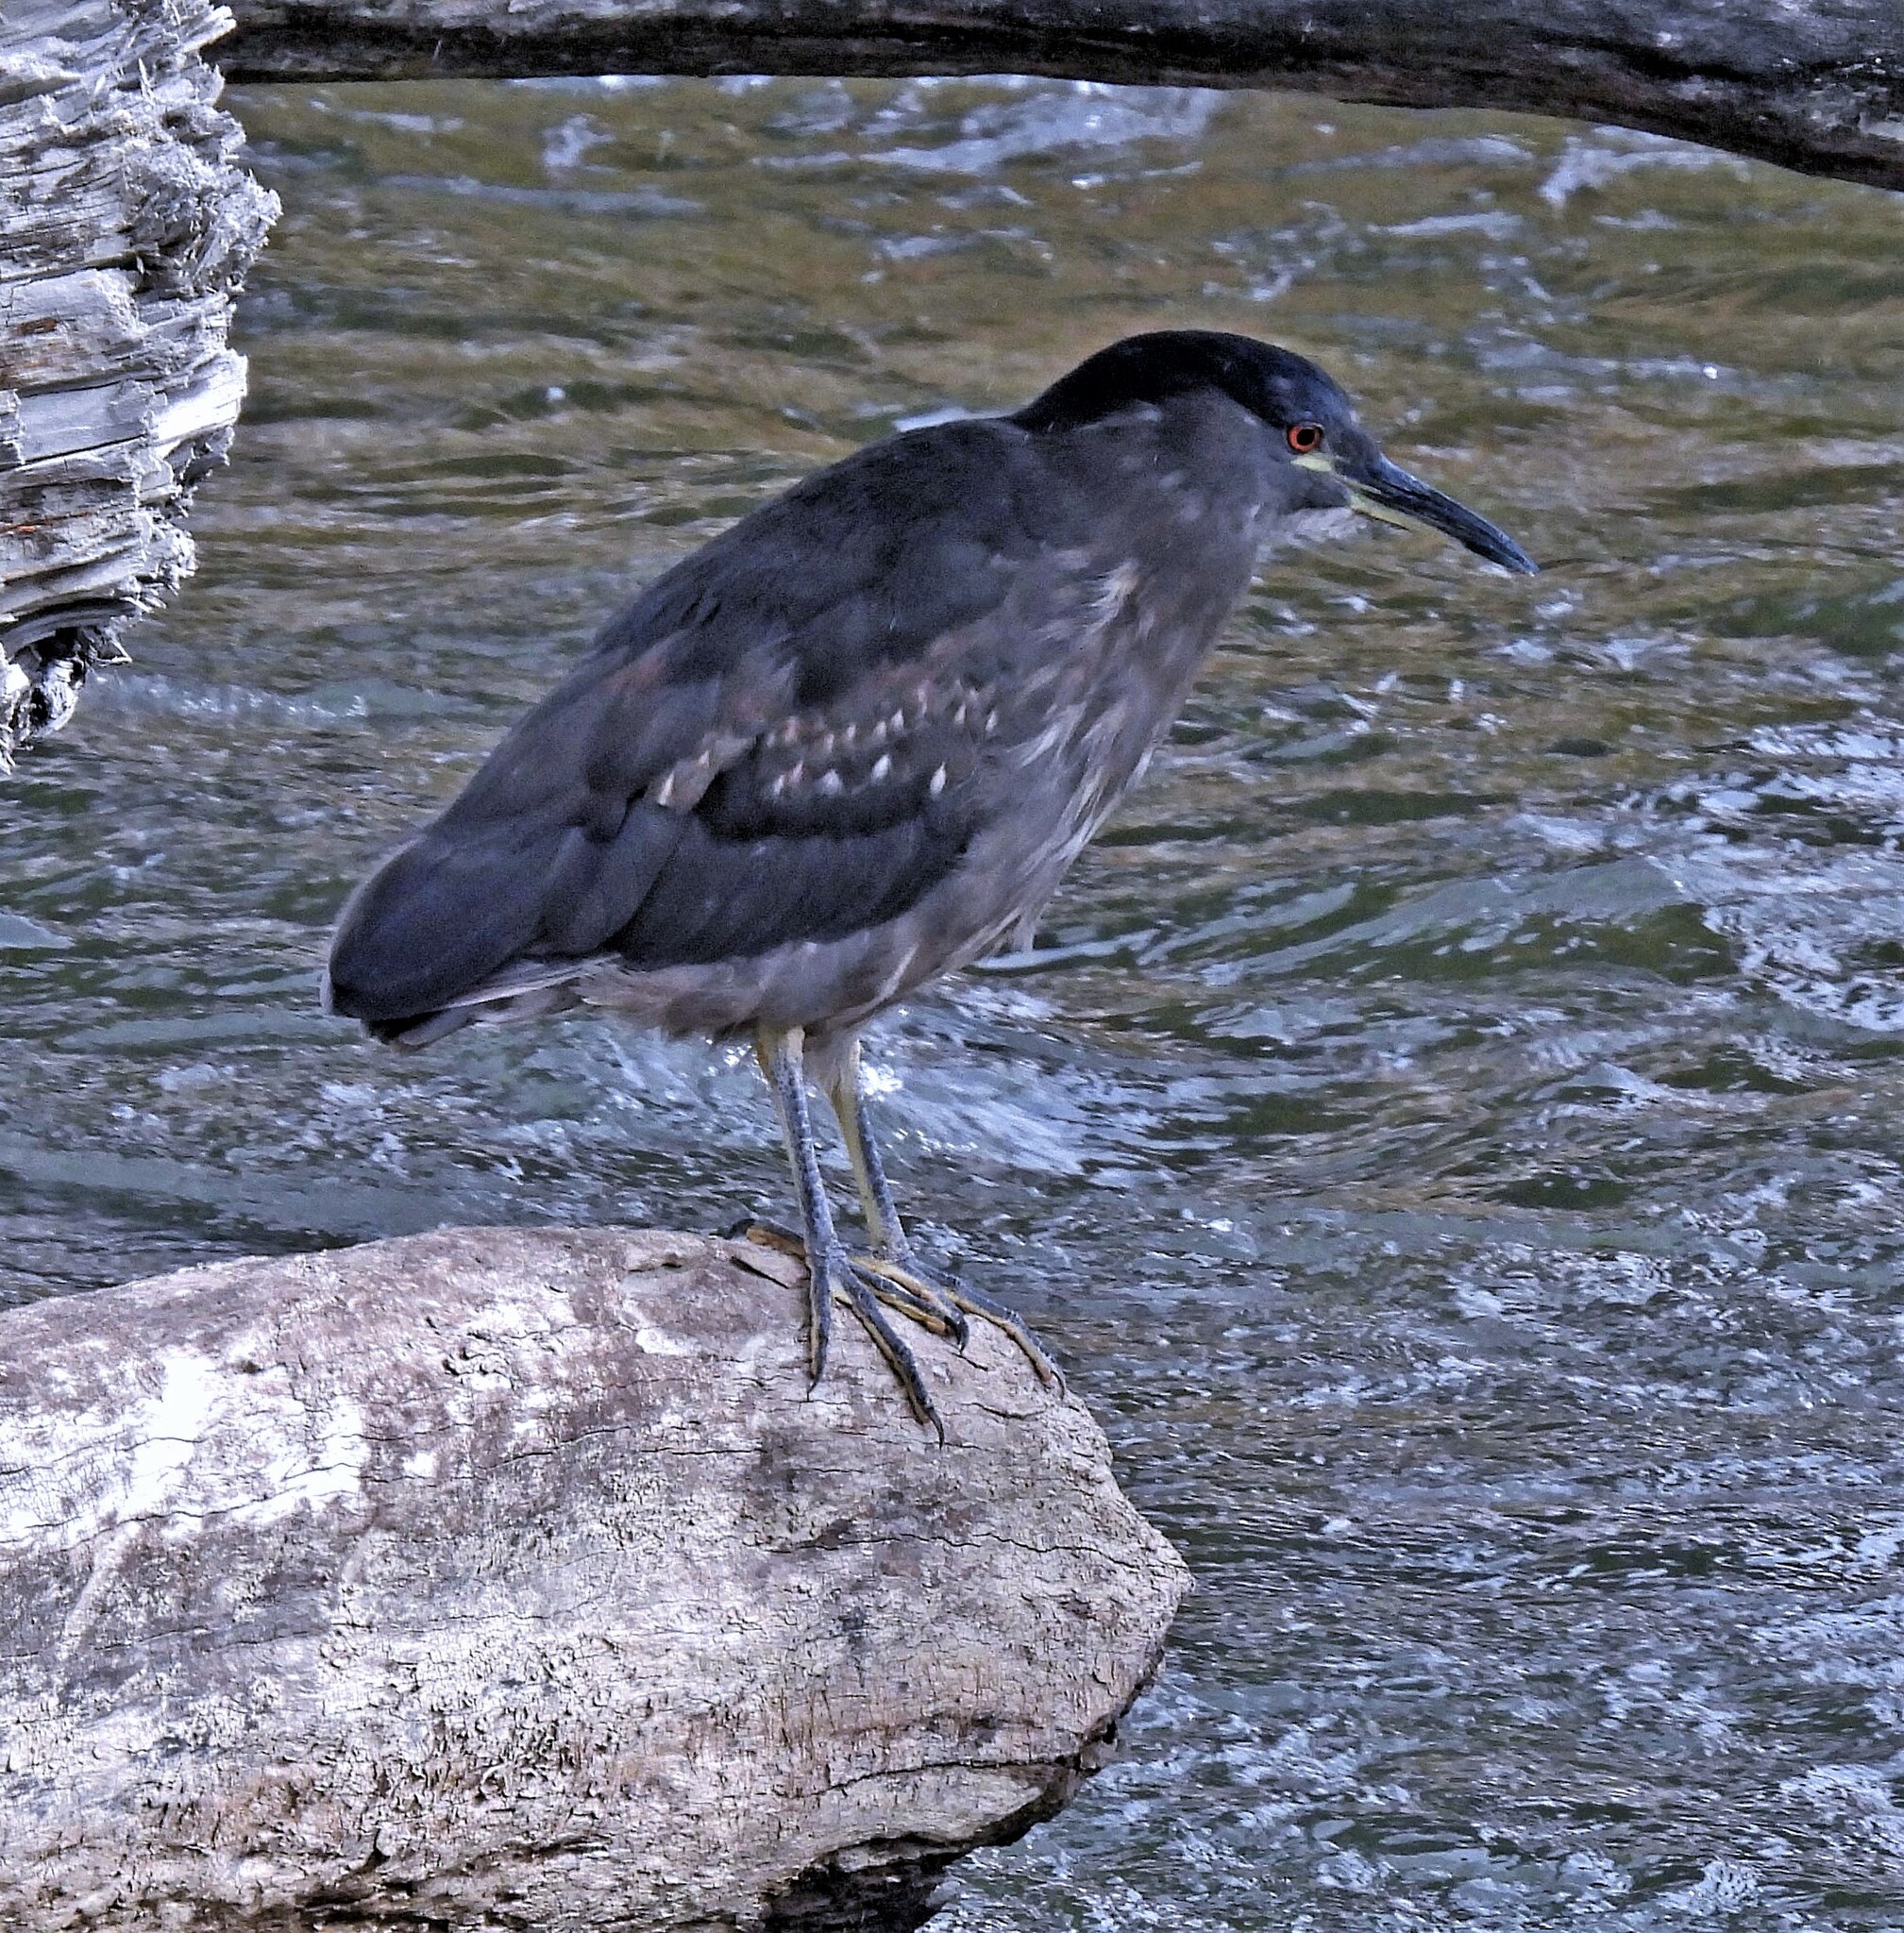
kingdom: Animalia
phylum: Chordata
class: Aves
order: Pelecaniformes
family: Ardeidae
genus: Nycticorax
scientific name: Nycticorax nycticorax
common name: Black-crowned night heron
